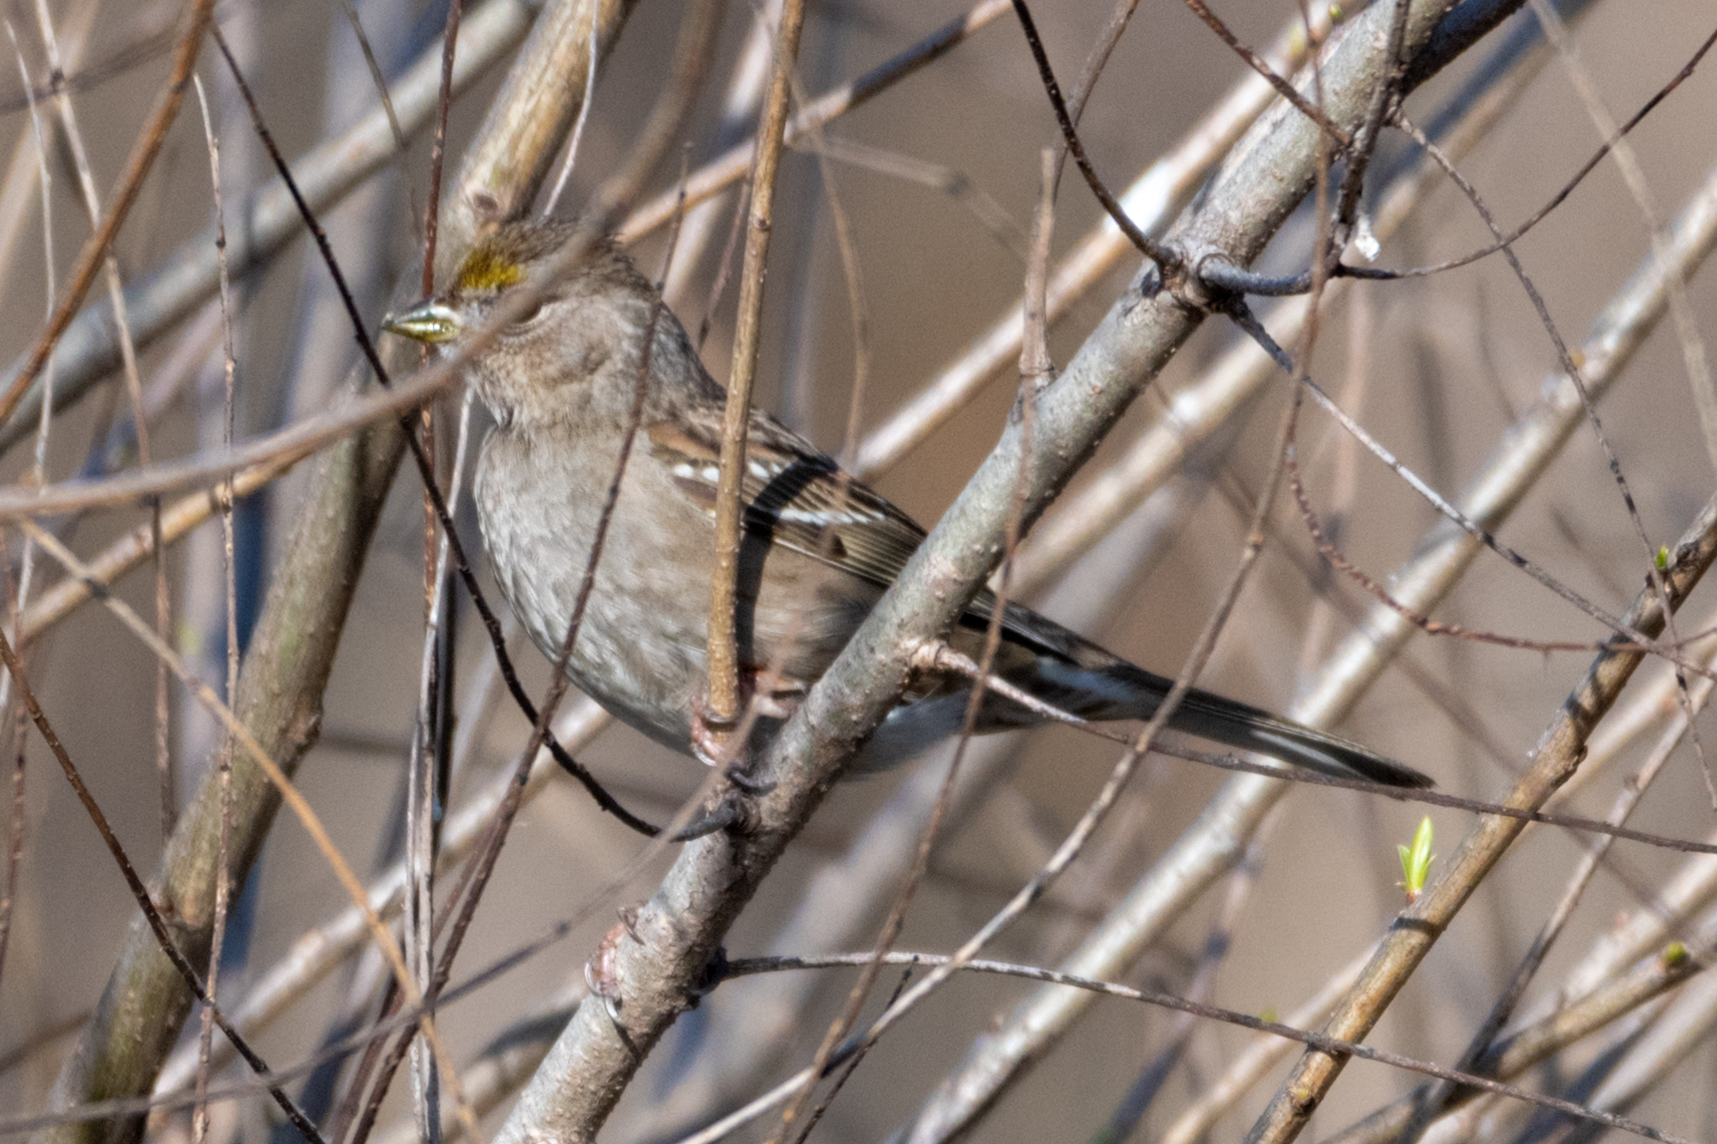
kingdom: Animalia
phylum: Chordata
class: Aves
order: Passeriformes
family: Passerellidae
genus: Zonotrichia
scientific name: Zonotrichia atricapilla
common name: Golden-crowned sparrow
